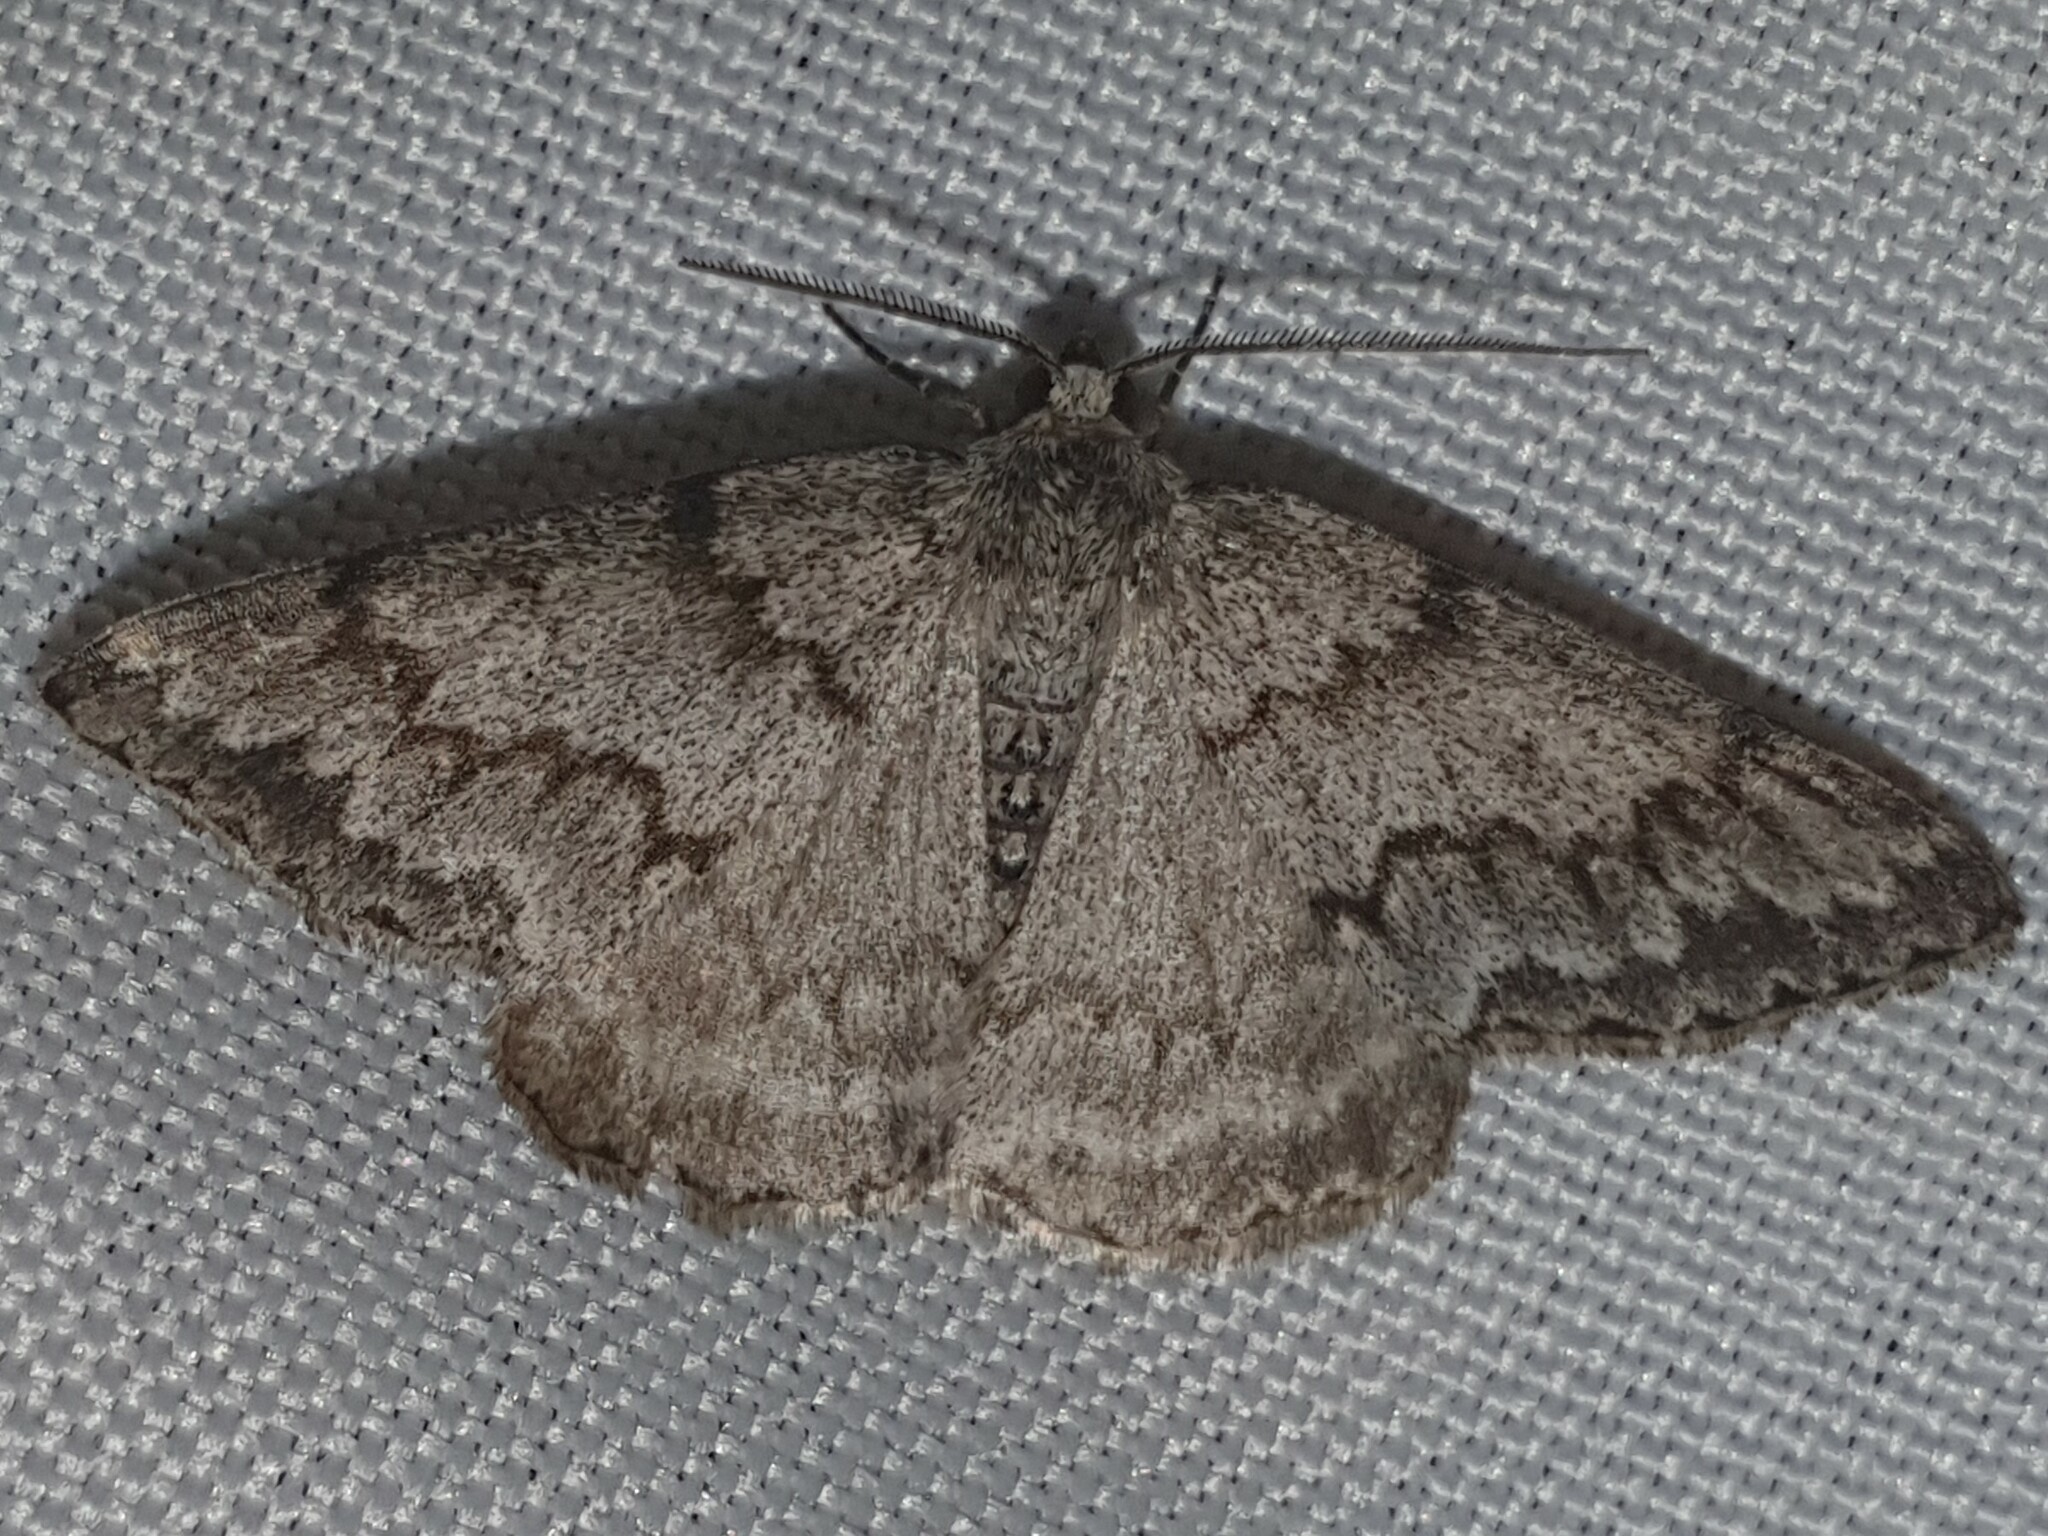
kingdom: Animalia
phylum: Arthropoda
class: Insecta
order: Lepidoptera
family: Geometridae
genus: Pseudoterpna
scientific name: Pseudoterpna coronillaria
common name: Jersey emerald
